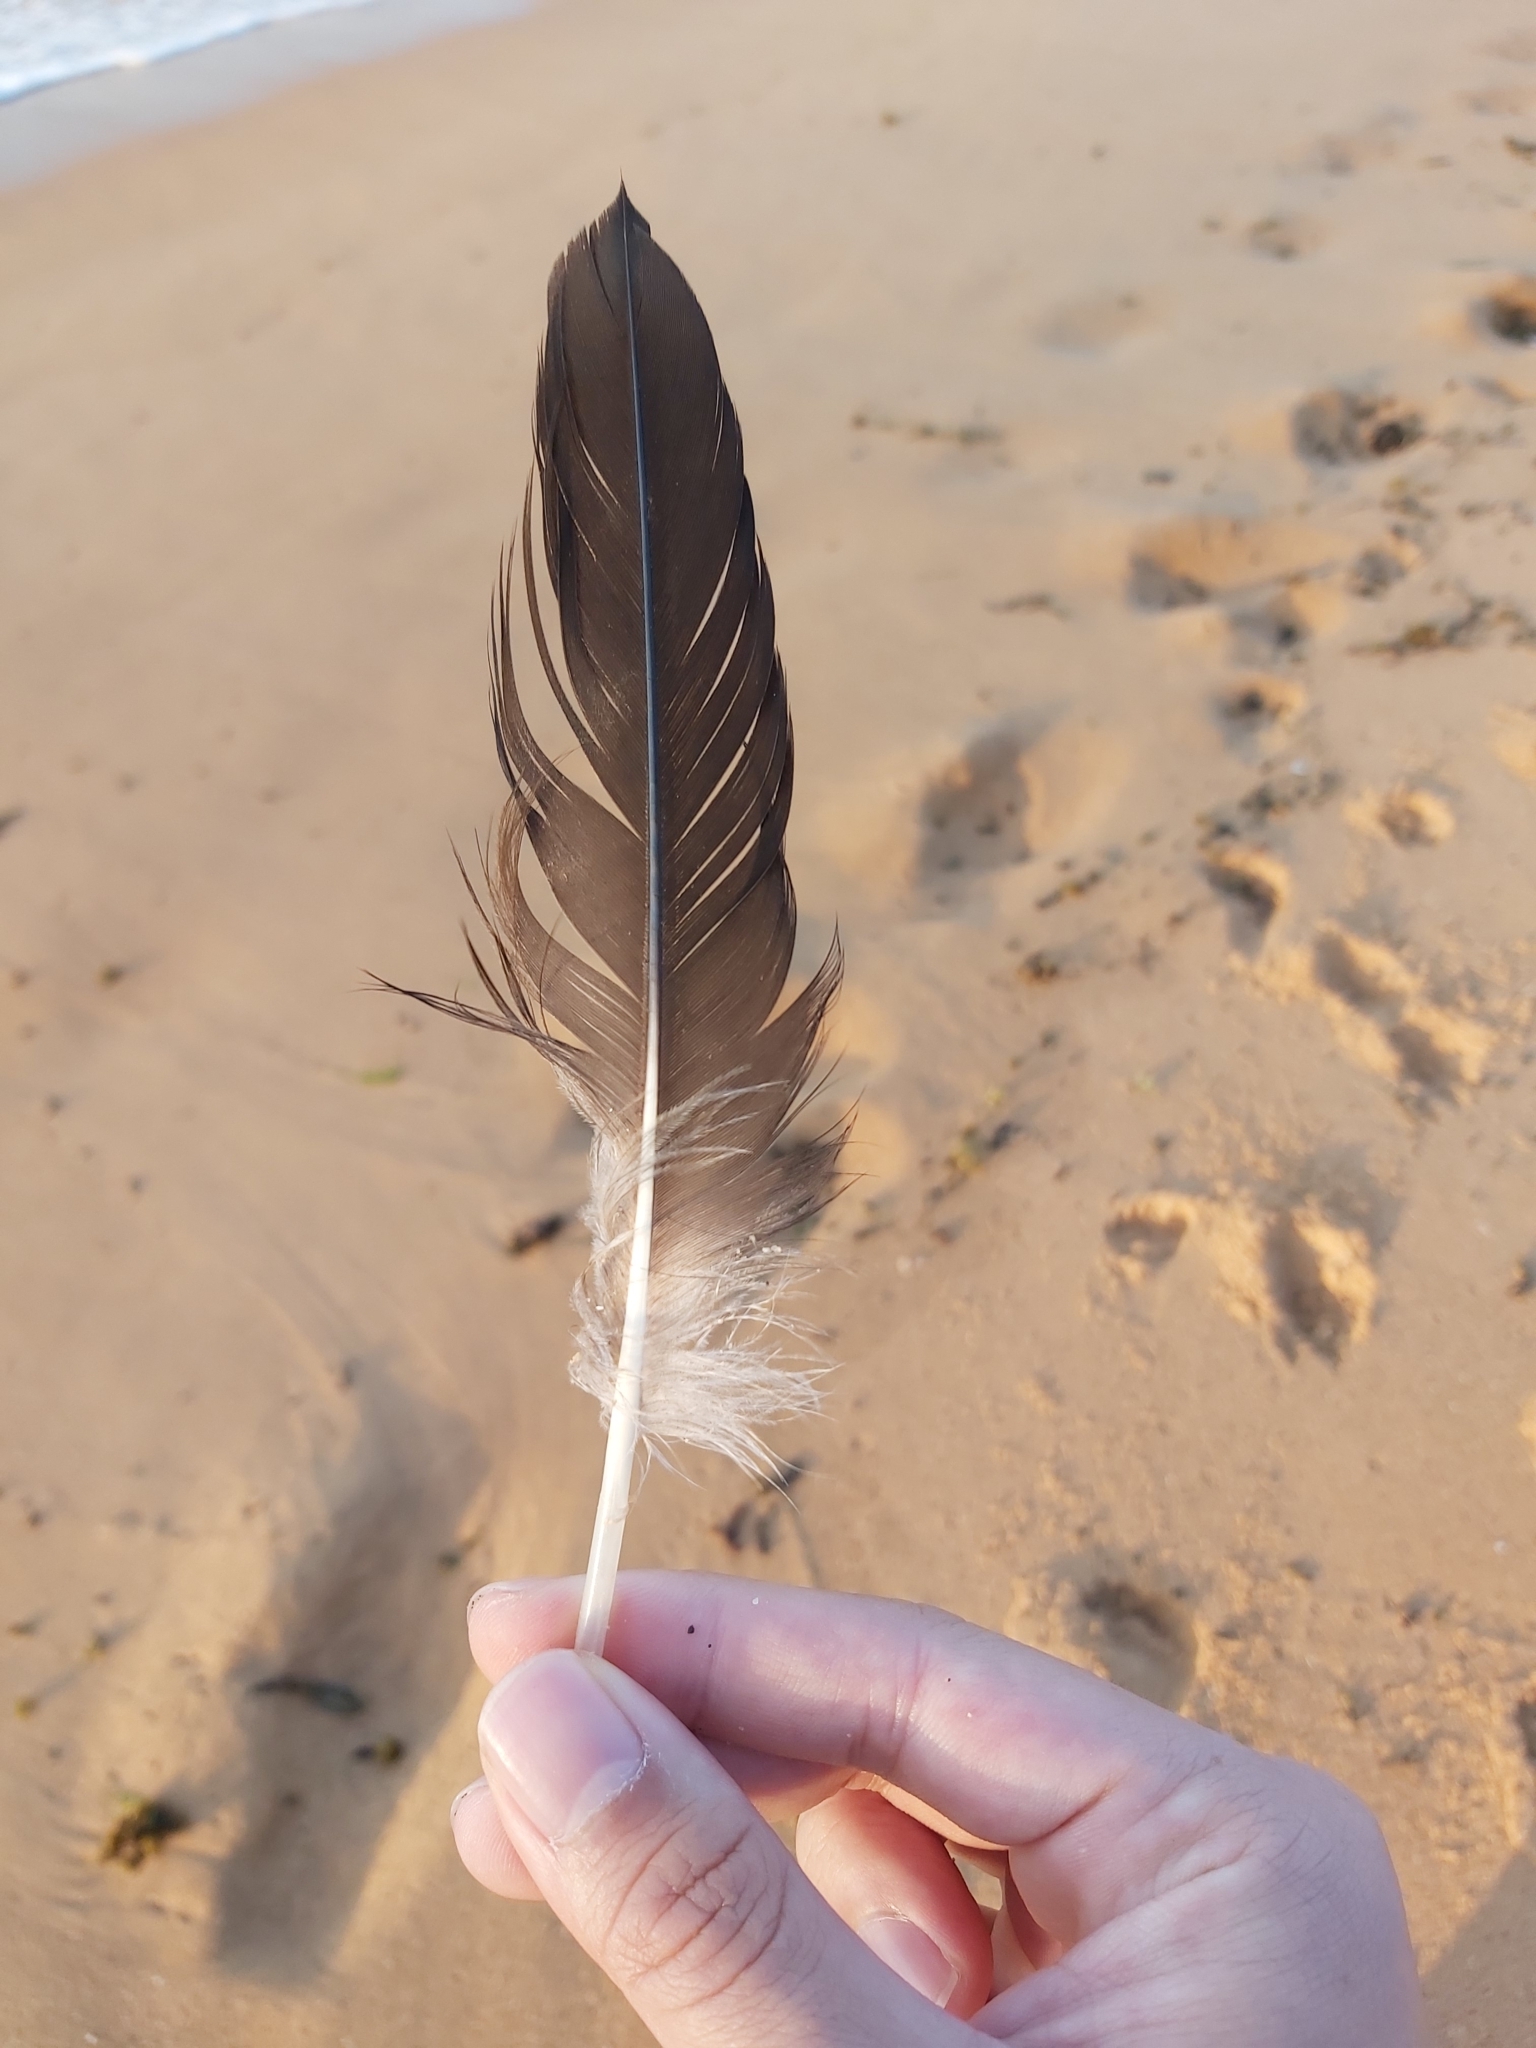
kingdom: Animalia
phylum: Chordata
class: Aves
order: Suliformes
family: Sulidae
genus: Morus
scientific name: Morus serrator
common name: Australasian gannet
